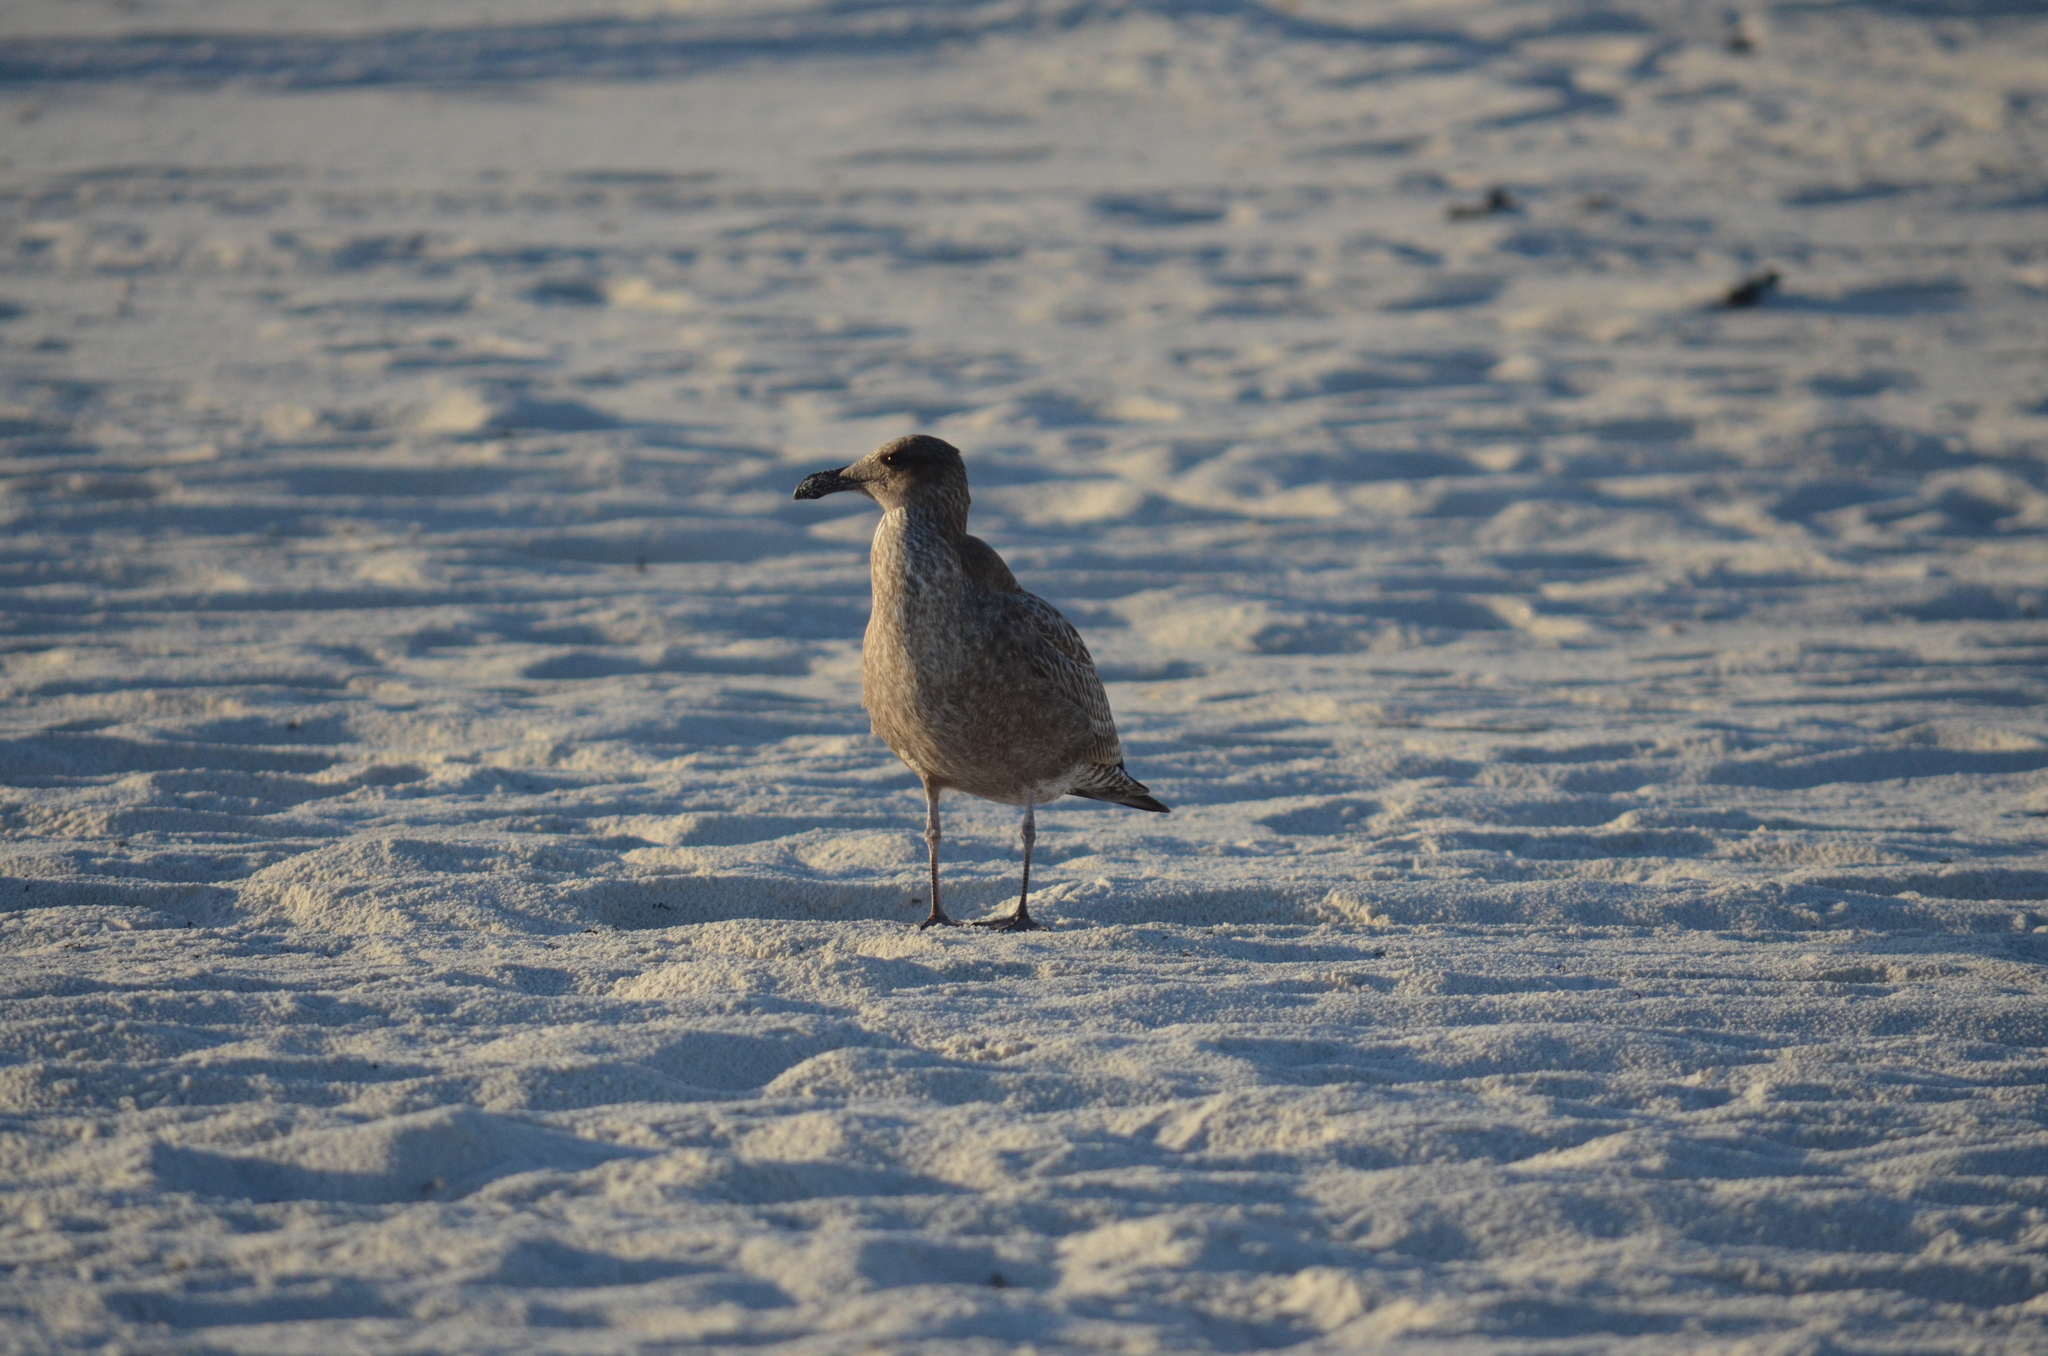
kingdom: Animalia
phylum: Chordata
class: Aves
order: Charadriiformes
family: Laridae
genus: Larus
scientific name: Larus argentatus
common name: Herring gull
